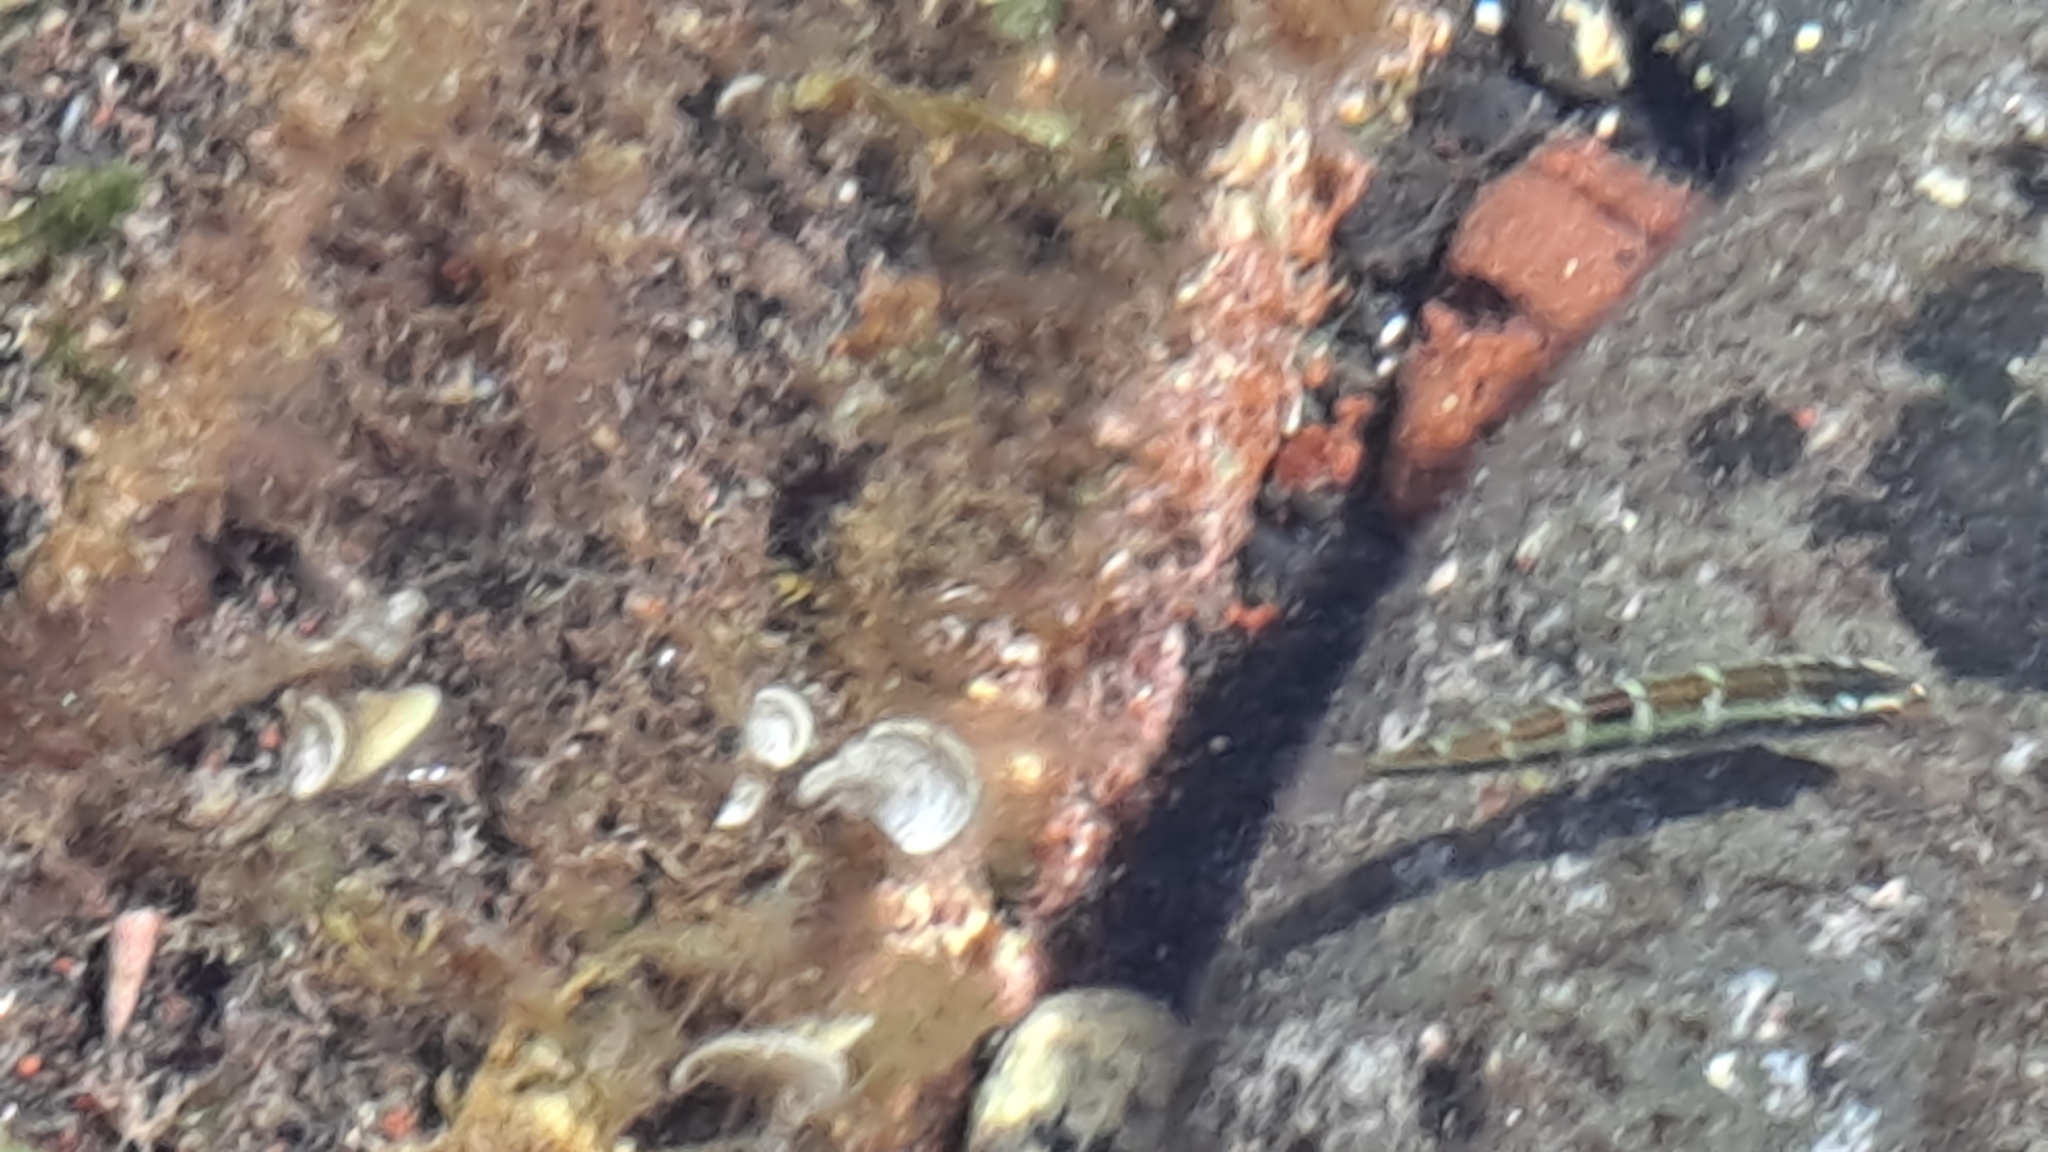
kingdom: Animalia
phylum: Chordata
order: Perciformes
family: Labridae
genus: Thalassoma
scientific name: Thalassoma pavo
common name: Ornate wrasse
